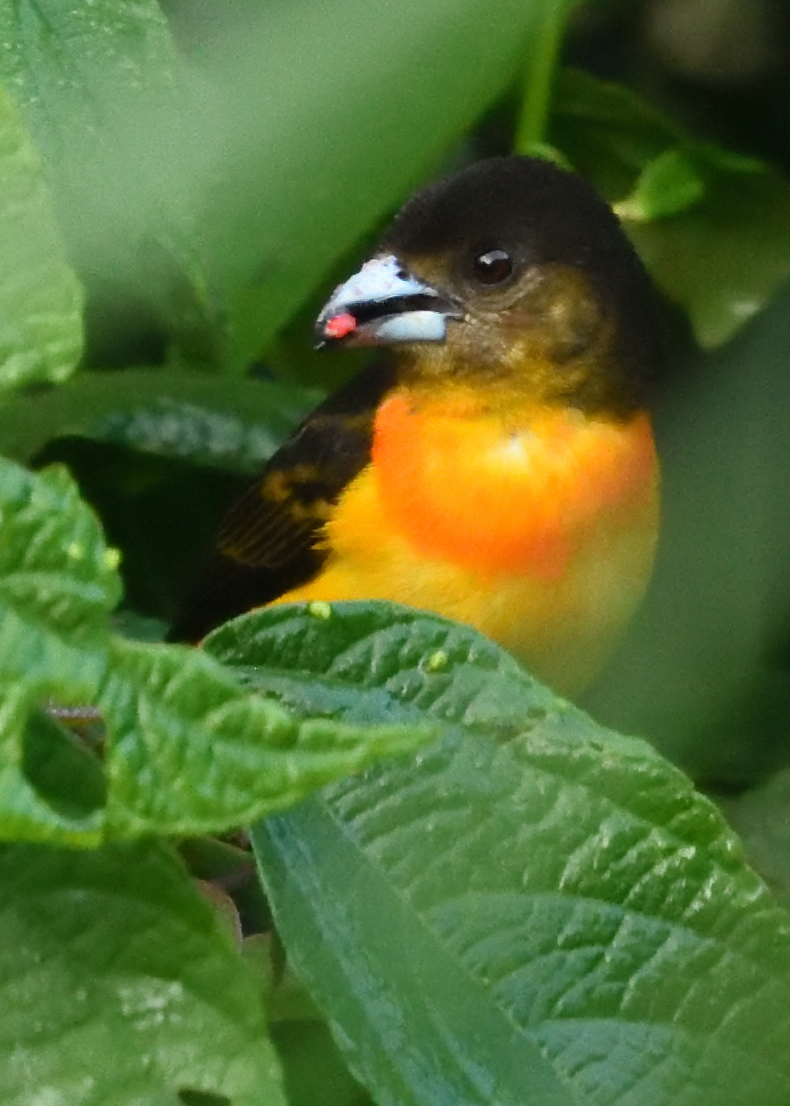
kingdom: Animalia
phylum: Chordata
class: Aves
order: Passeriformes
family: Thraupidae
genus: Ramphocelus
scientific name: Ramphocelus flammigerus
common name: Flame-rumped tanager
